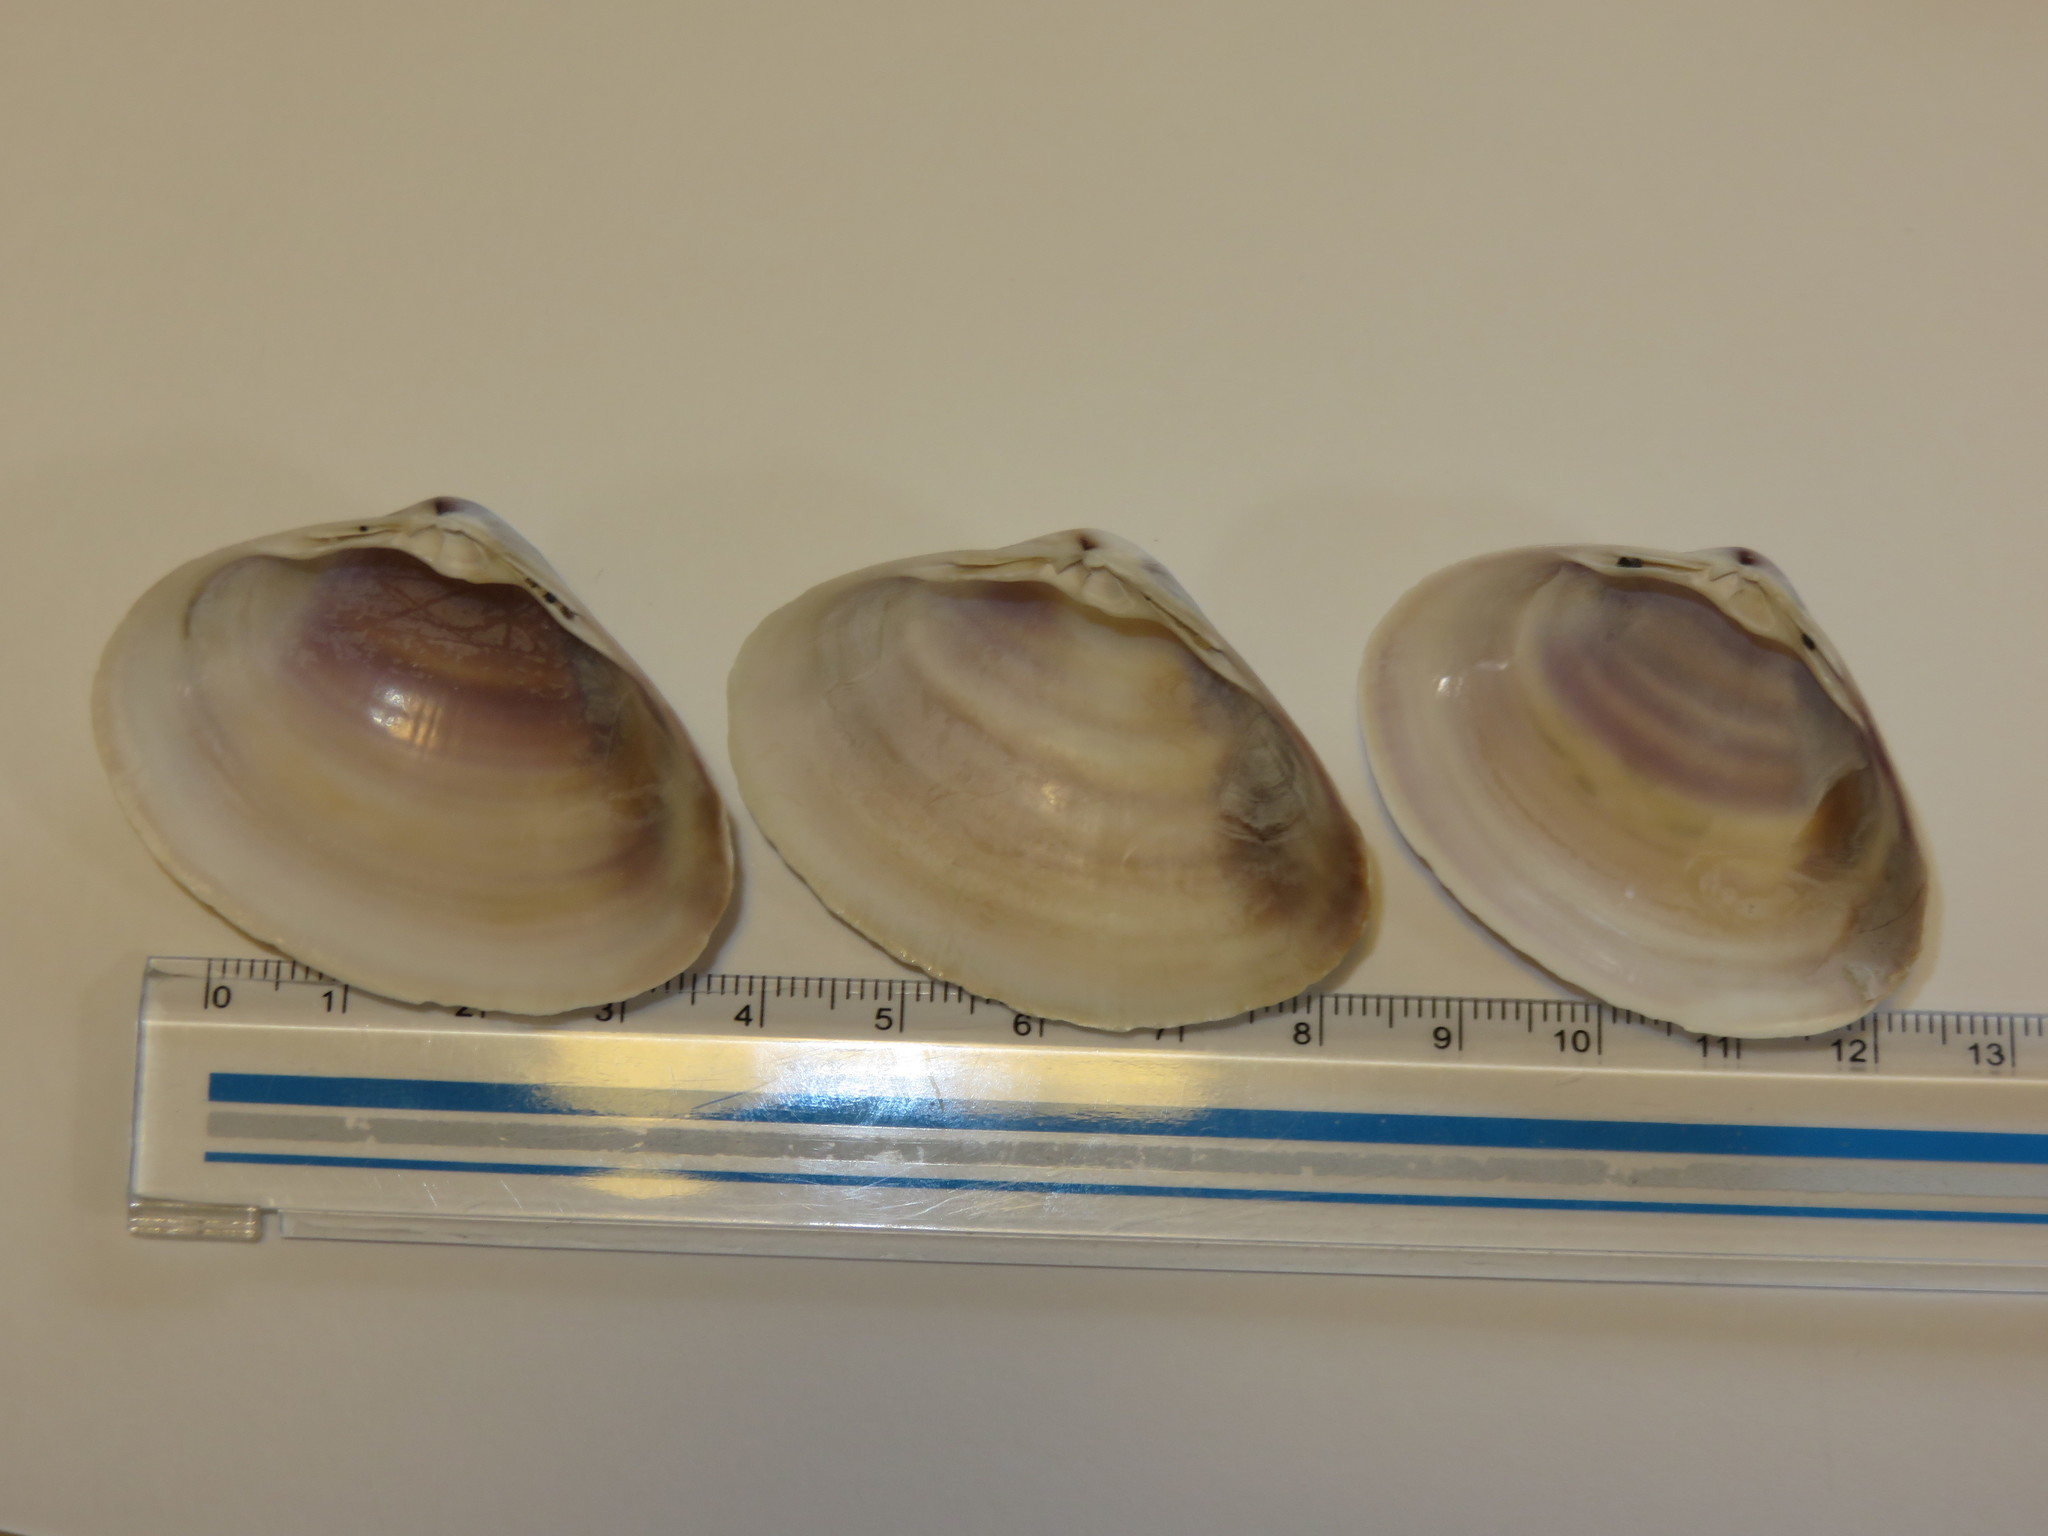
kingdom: Animalia
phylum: Mollusca
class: Bivalvia
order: Venerida
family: Mactridae
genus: Mactra
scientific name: Mactra chinensis
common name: Chinese surf clam
